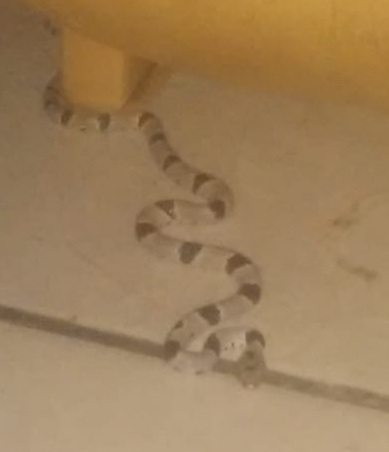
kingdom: Animalia
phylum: Chordata
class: Squamata
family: Colubridae
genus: Trimorphodon
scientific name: Trimorphodon vilkinsonii
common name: Texas lyre snake
